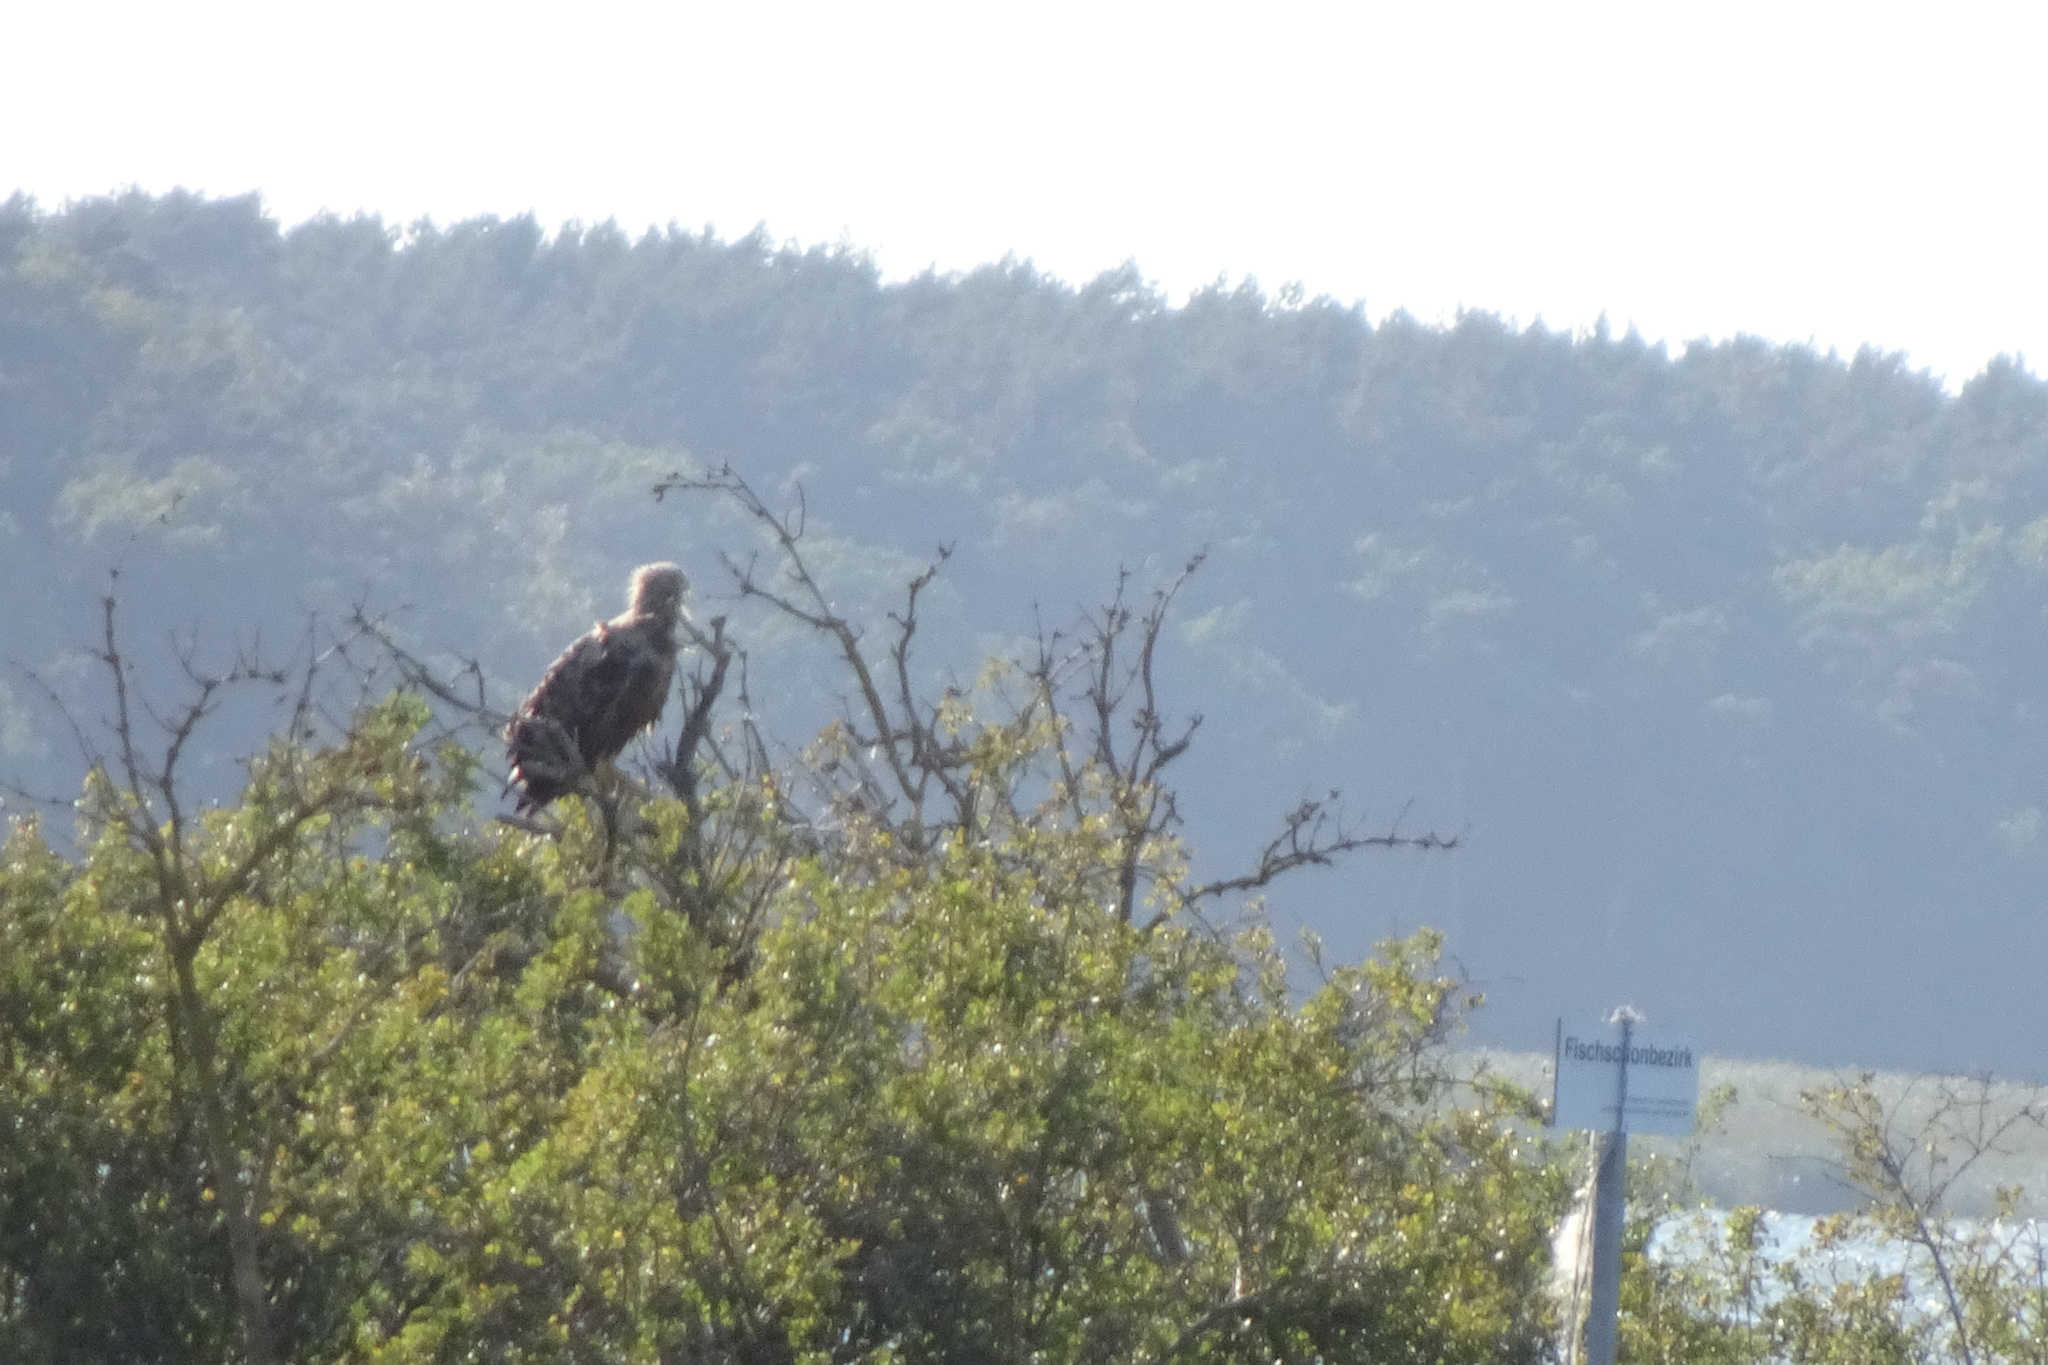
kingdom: Animalia
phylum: Chordata
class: Aves
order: Accipitriformes
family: Accipitridae
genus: Haliaeetus
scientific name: Haliaeetus albicilla
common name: White-tailed eagle
